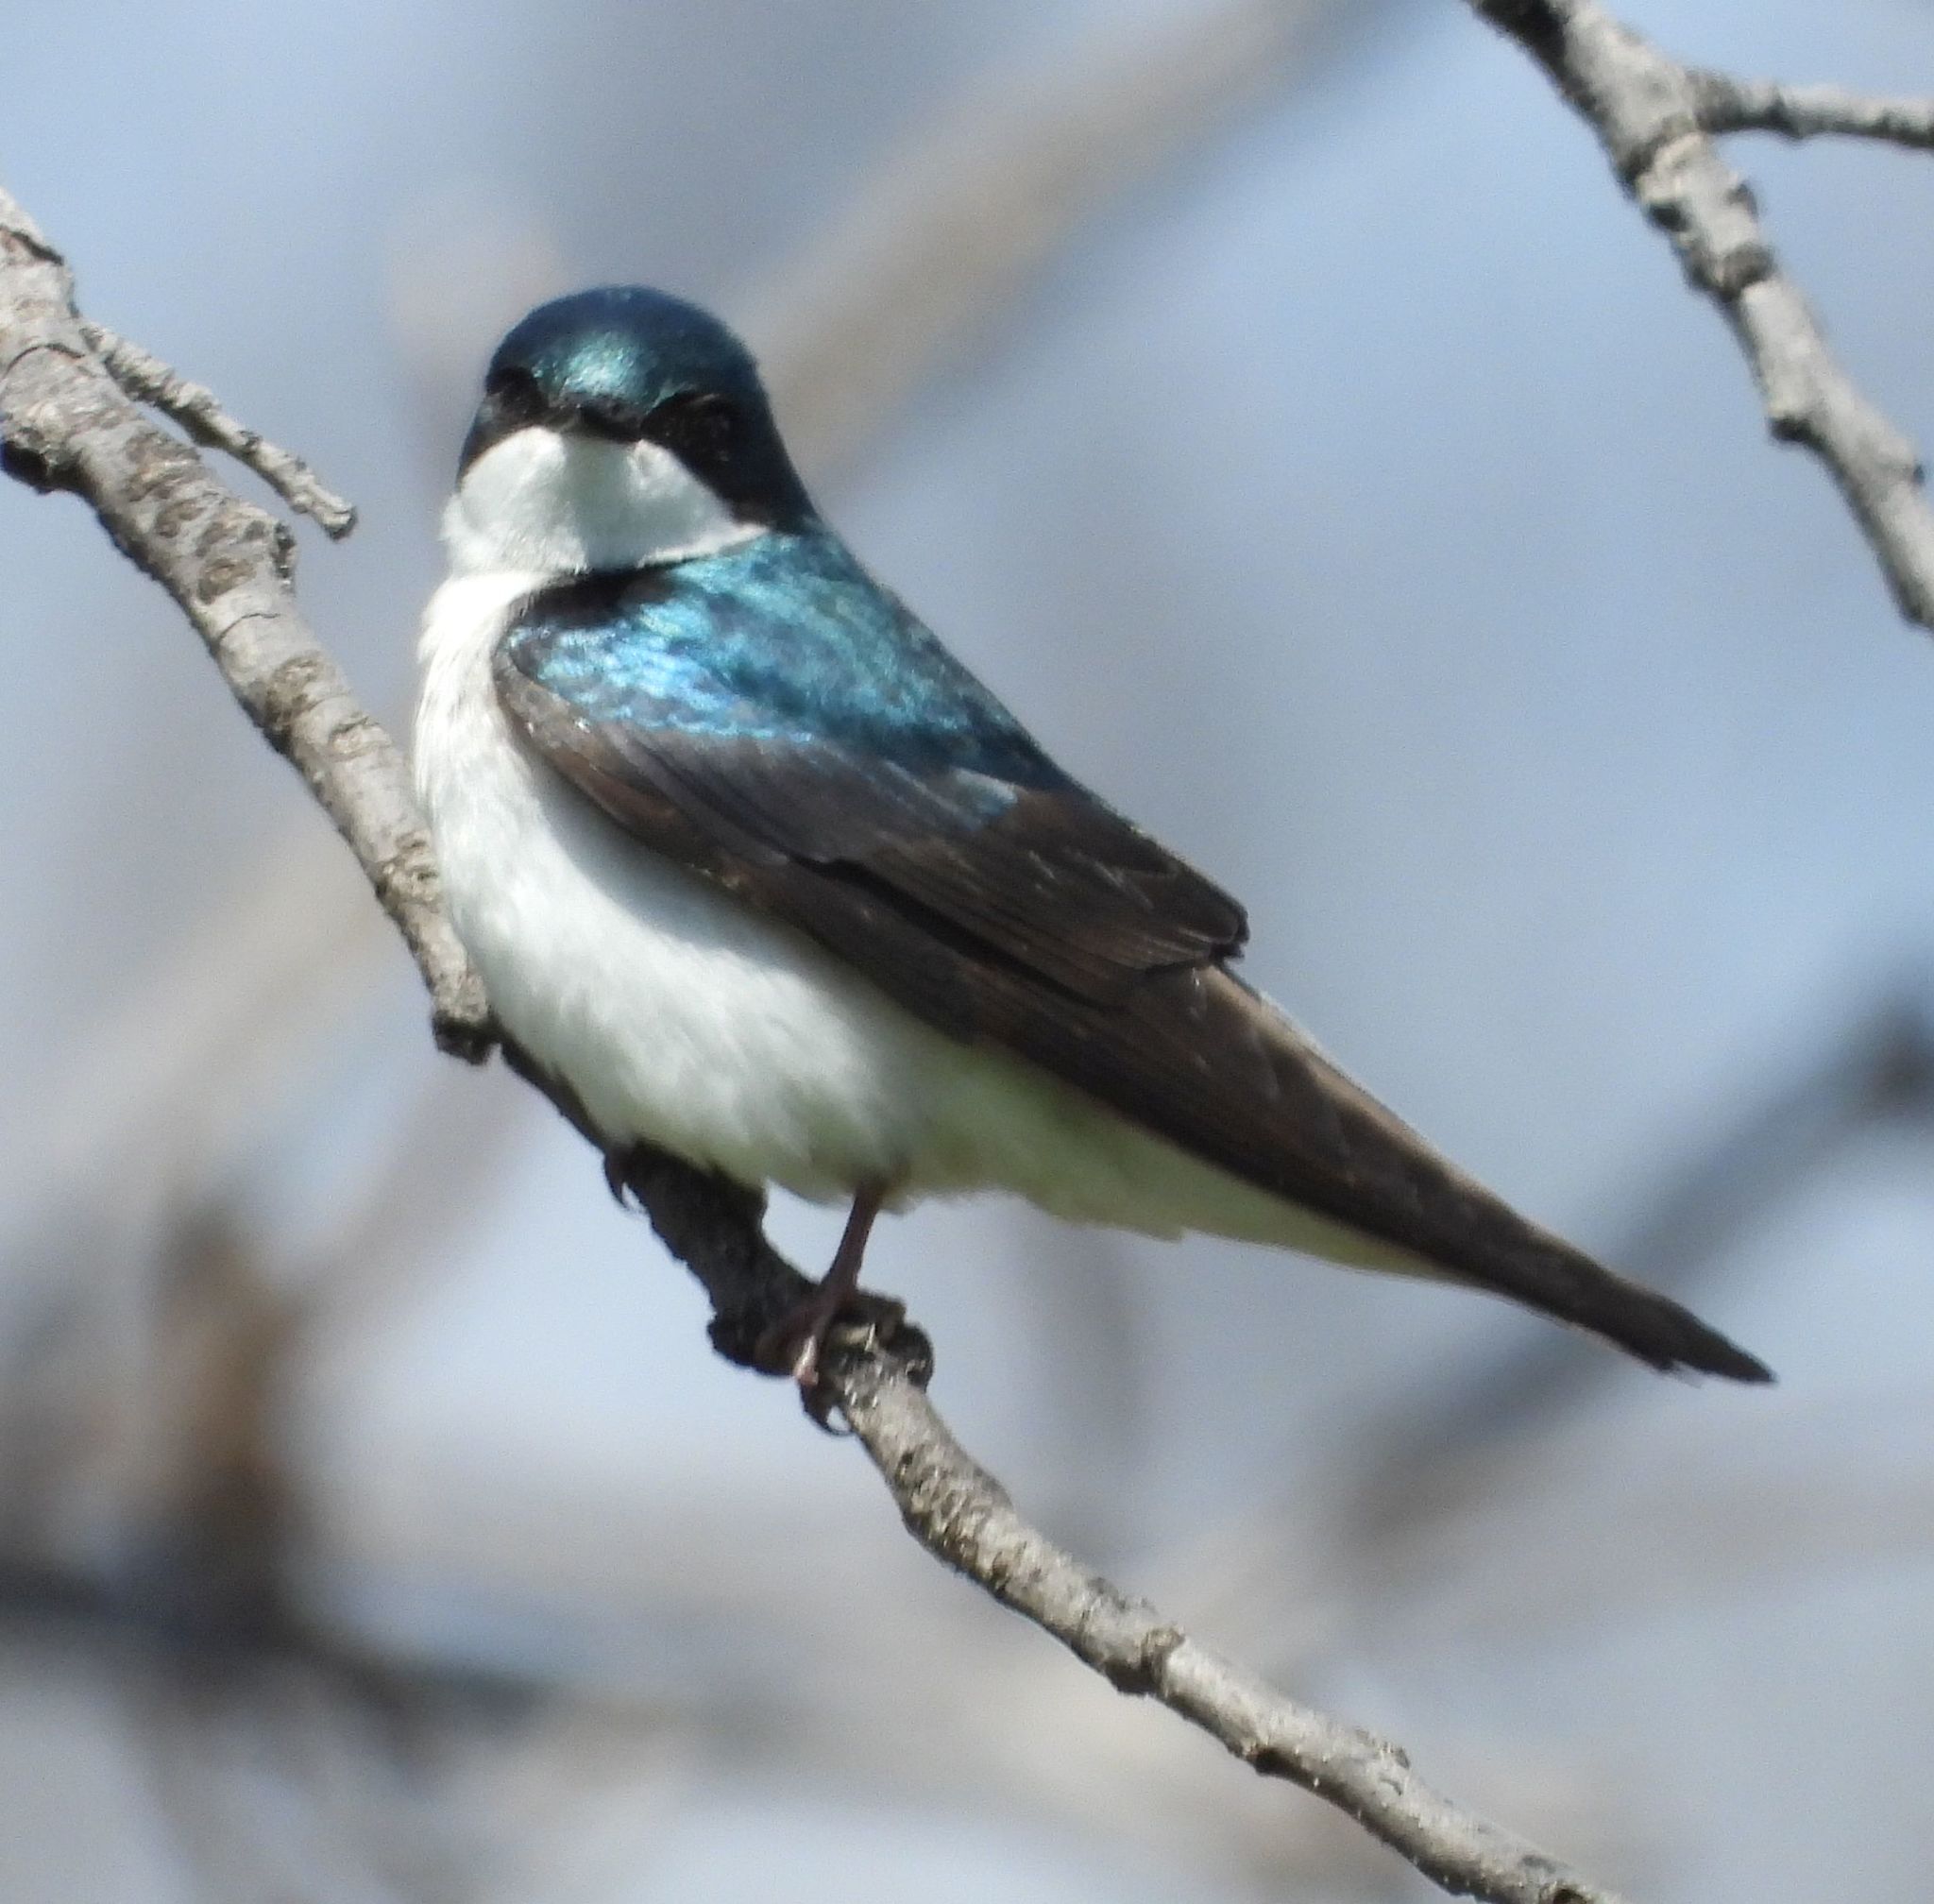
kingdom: Animalia
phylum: Chordata
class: Aves
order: Passeriformes
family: Hirundinidae
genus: Tachycineta
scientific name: Tachycineta bicolor
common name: Tree swallow
